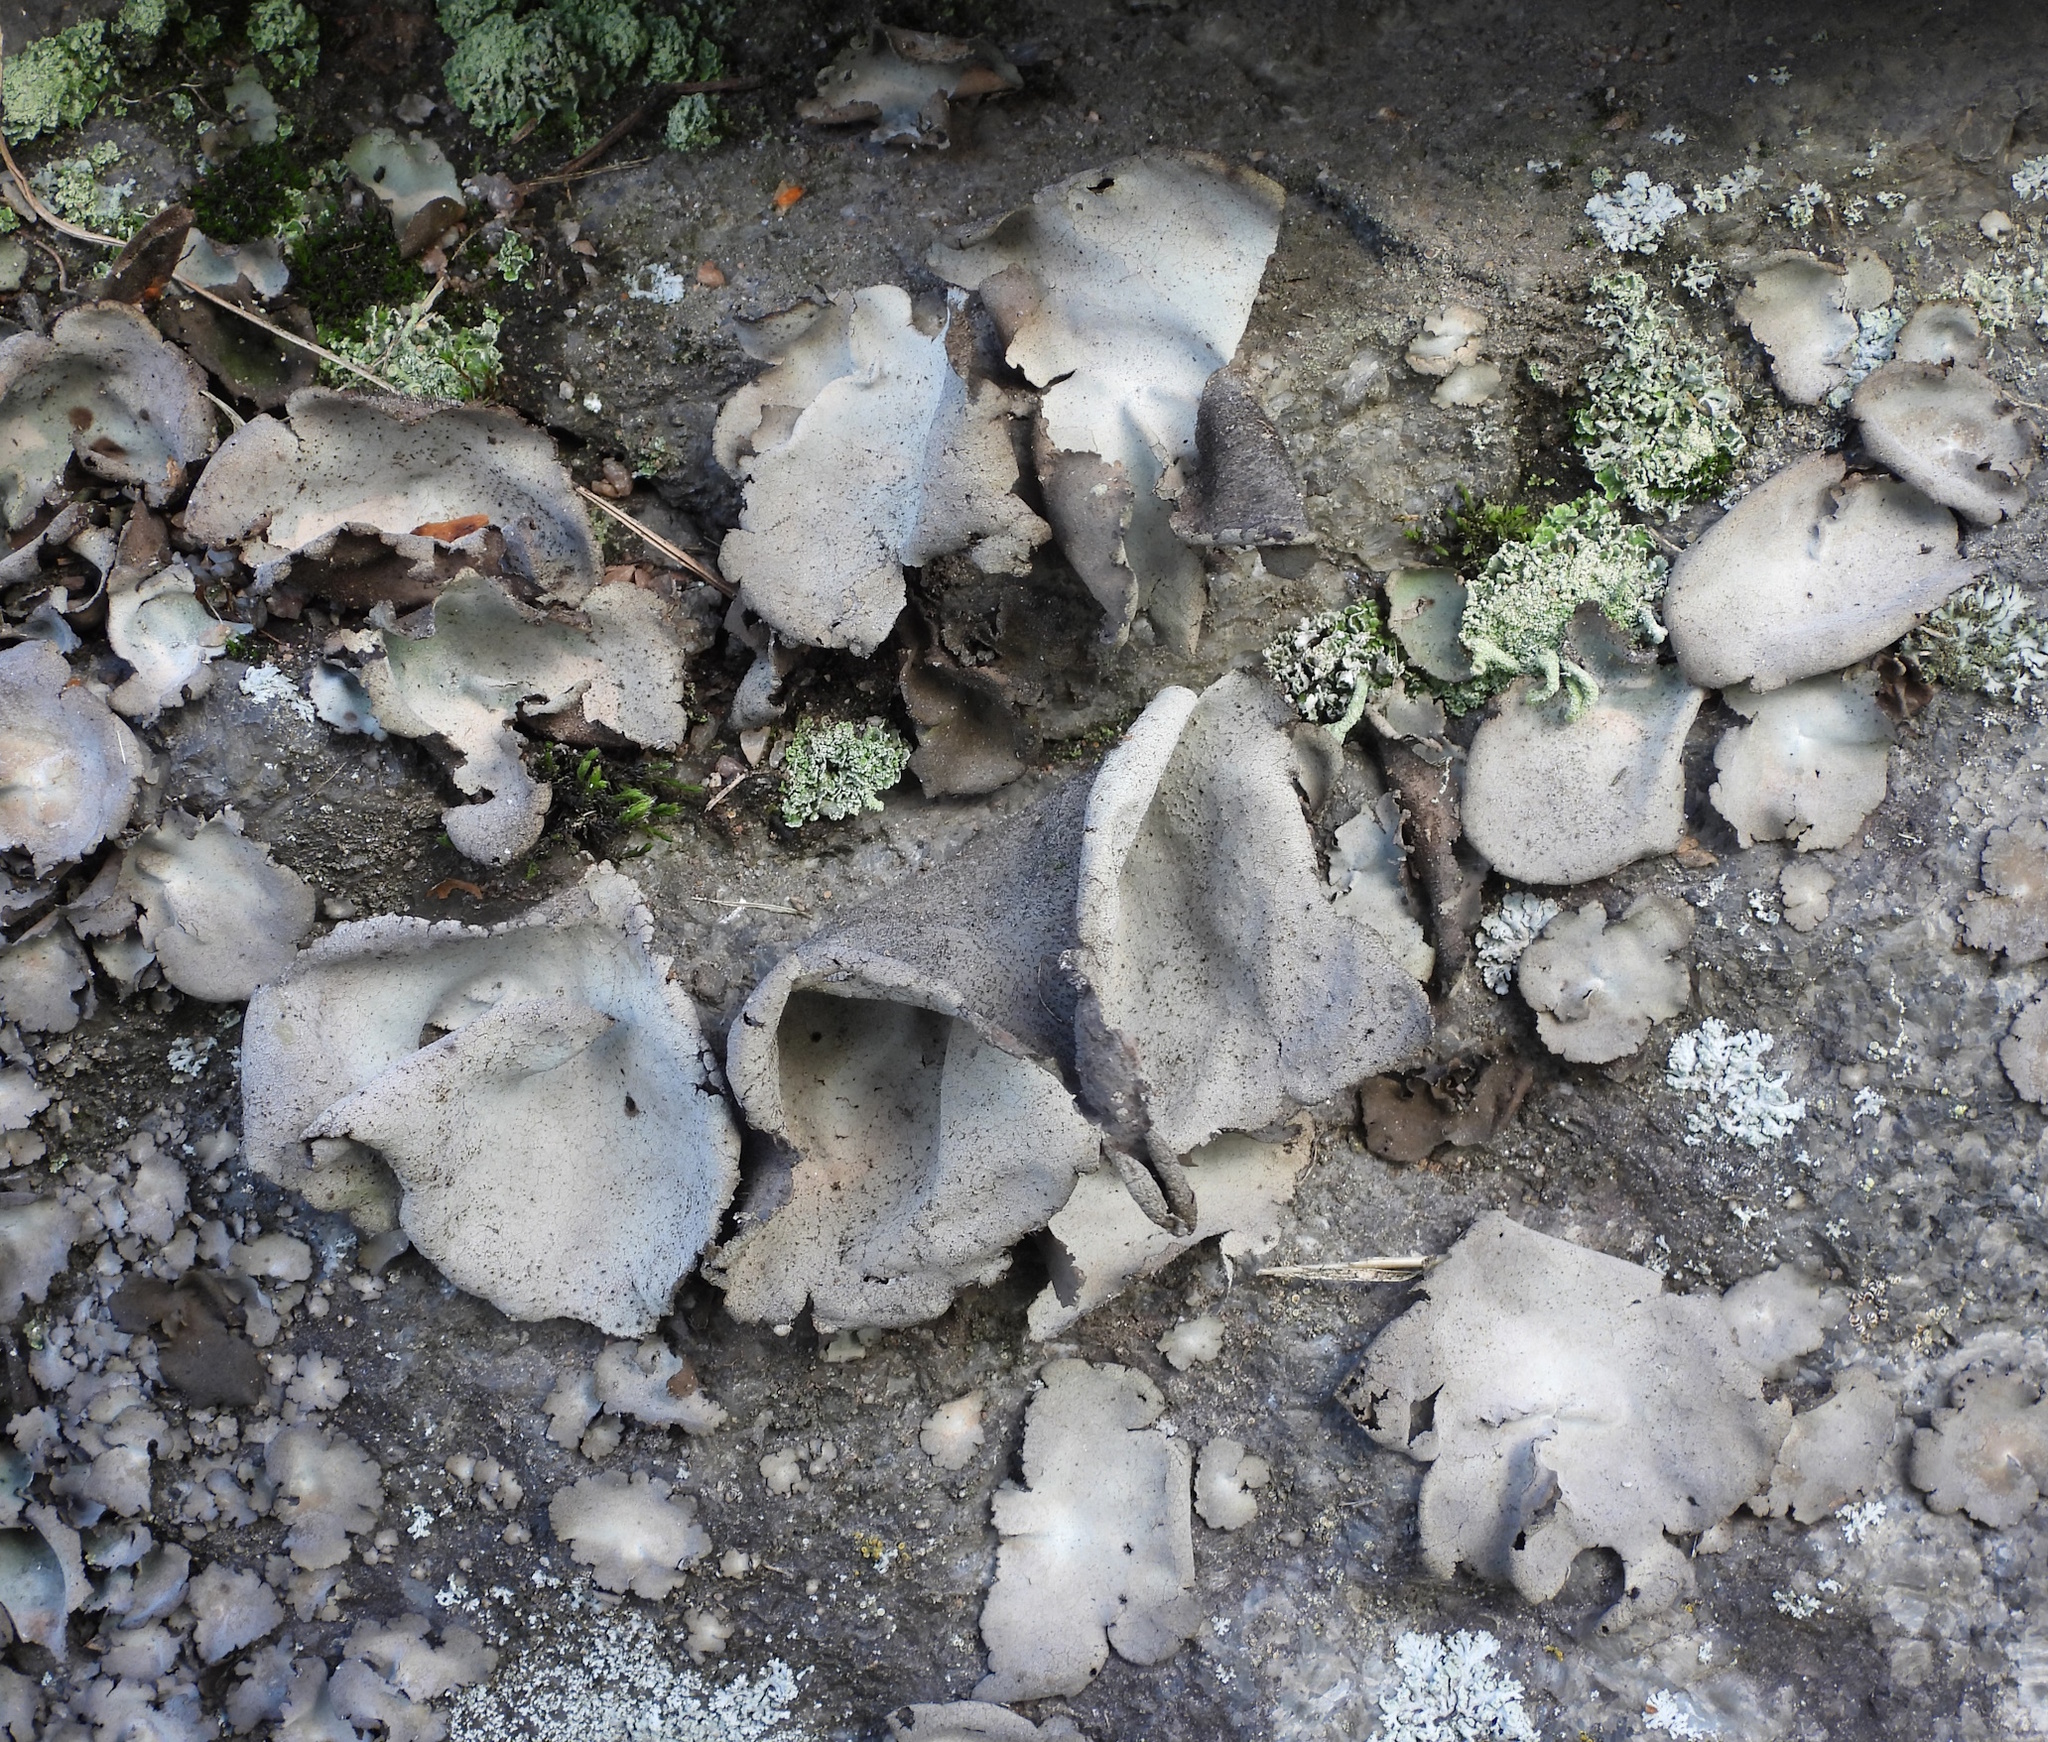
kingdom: Fungi
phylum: Ascomycota
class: Lecanoromycetes
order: Umbilicariales
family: Umbilicariaceae
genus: Umbilicaria
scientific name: Umbilicaria hirsuta
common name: Granulating rocktripe lichen
